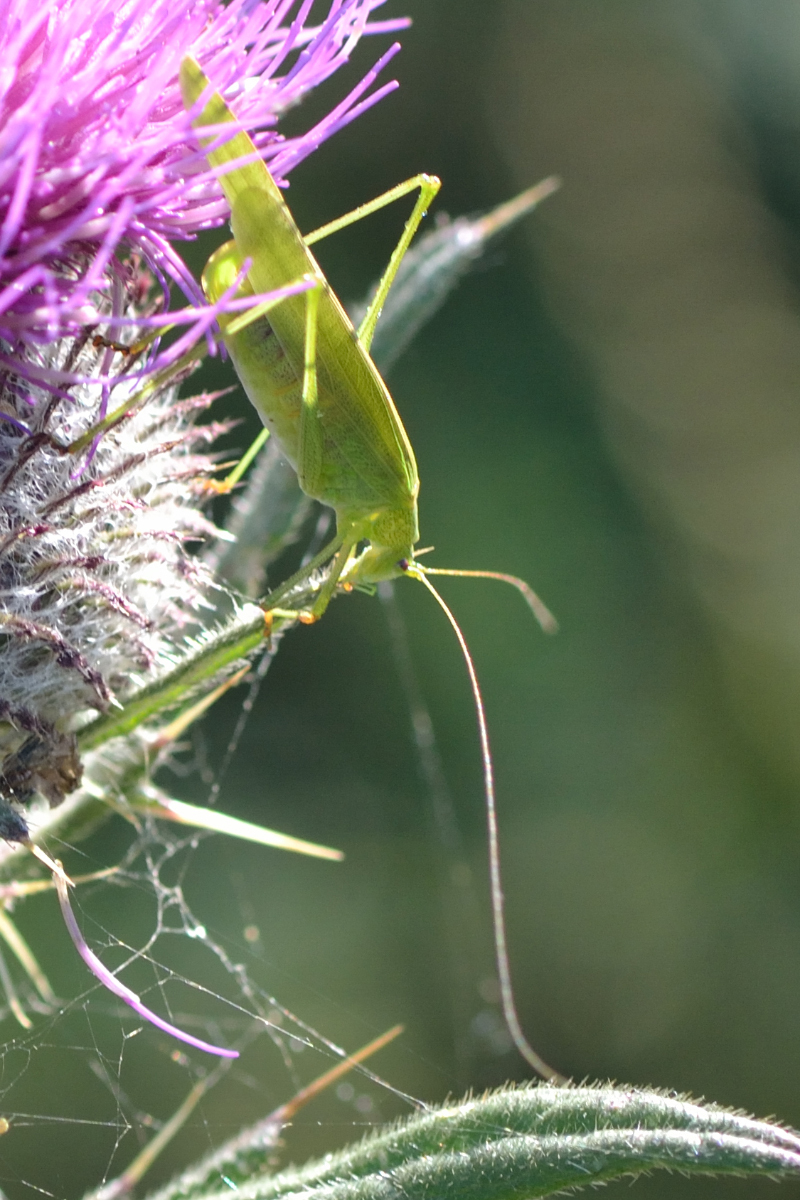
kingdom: Animalia
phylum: Arthropoda
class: Insecta
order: Orthoptera
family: Tettigoniidae
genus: Phaneroptera
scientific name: Phaneroptera falcata
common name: Sickle-bearing bush-cricket
